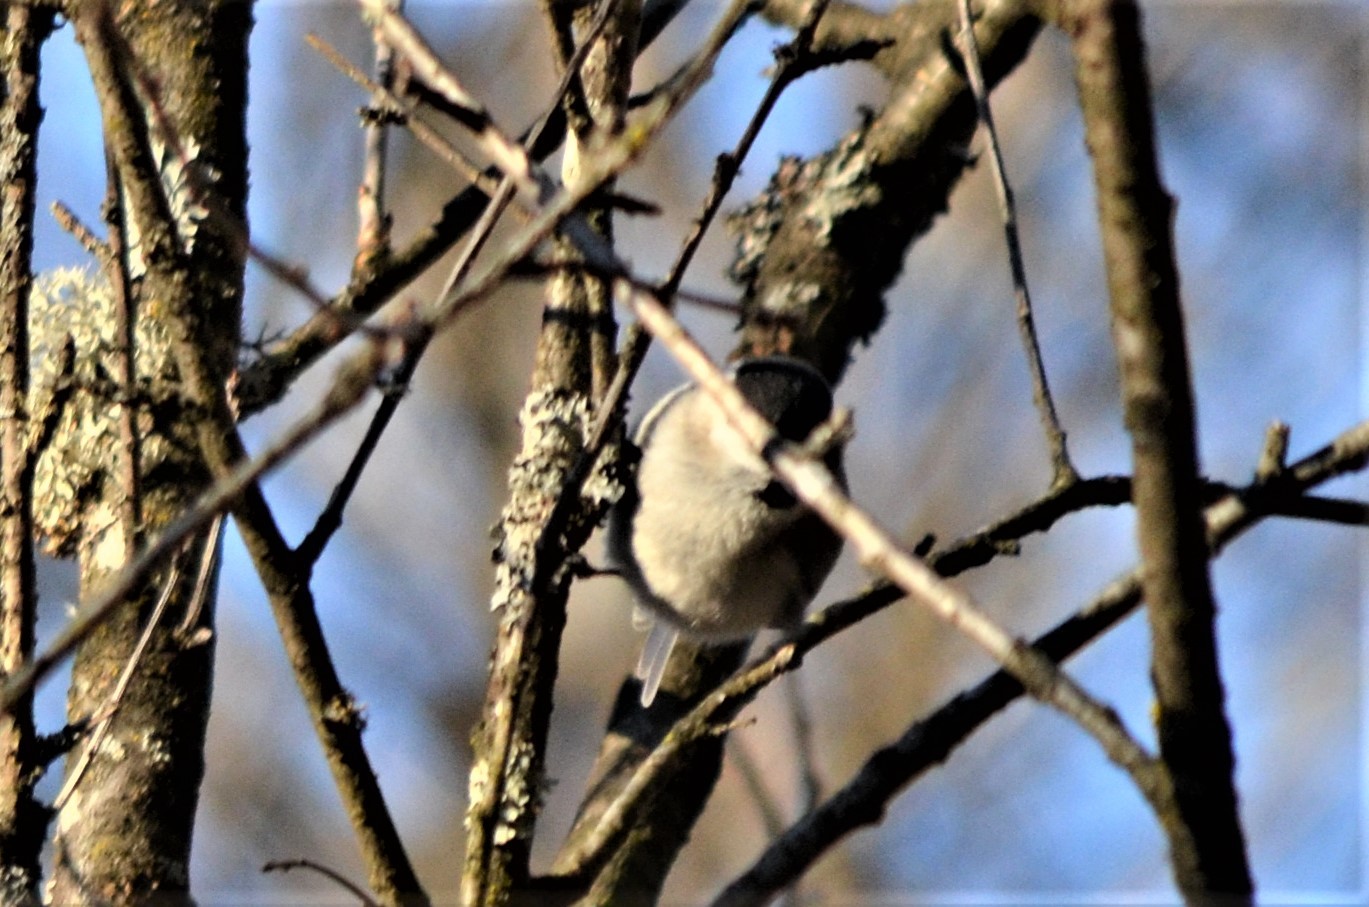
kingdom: Animalia
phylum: Chordata
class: Aves
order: Passeriformes
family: Paridae
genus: Poecile
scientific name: Poecile palustris
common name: Marsh tit
